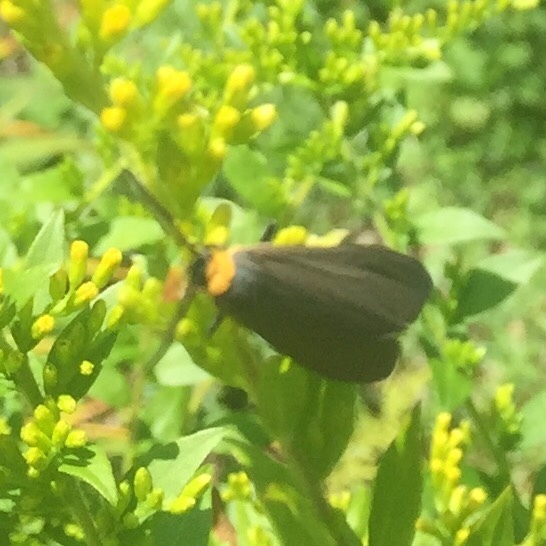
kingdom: Animalia
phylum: Arthropoda
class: Insecta
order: Lepidoptera
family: Erebidae
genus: Cisseps
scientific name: Cisseps fulvicollis
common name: Yellow-collared scape moth
